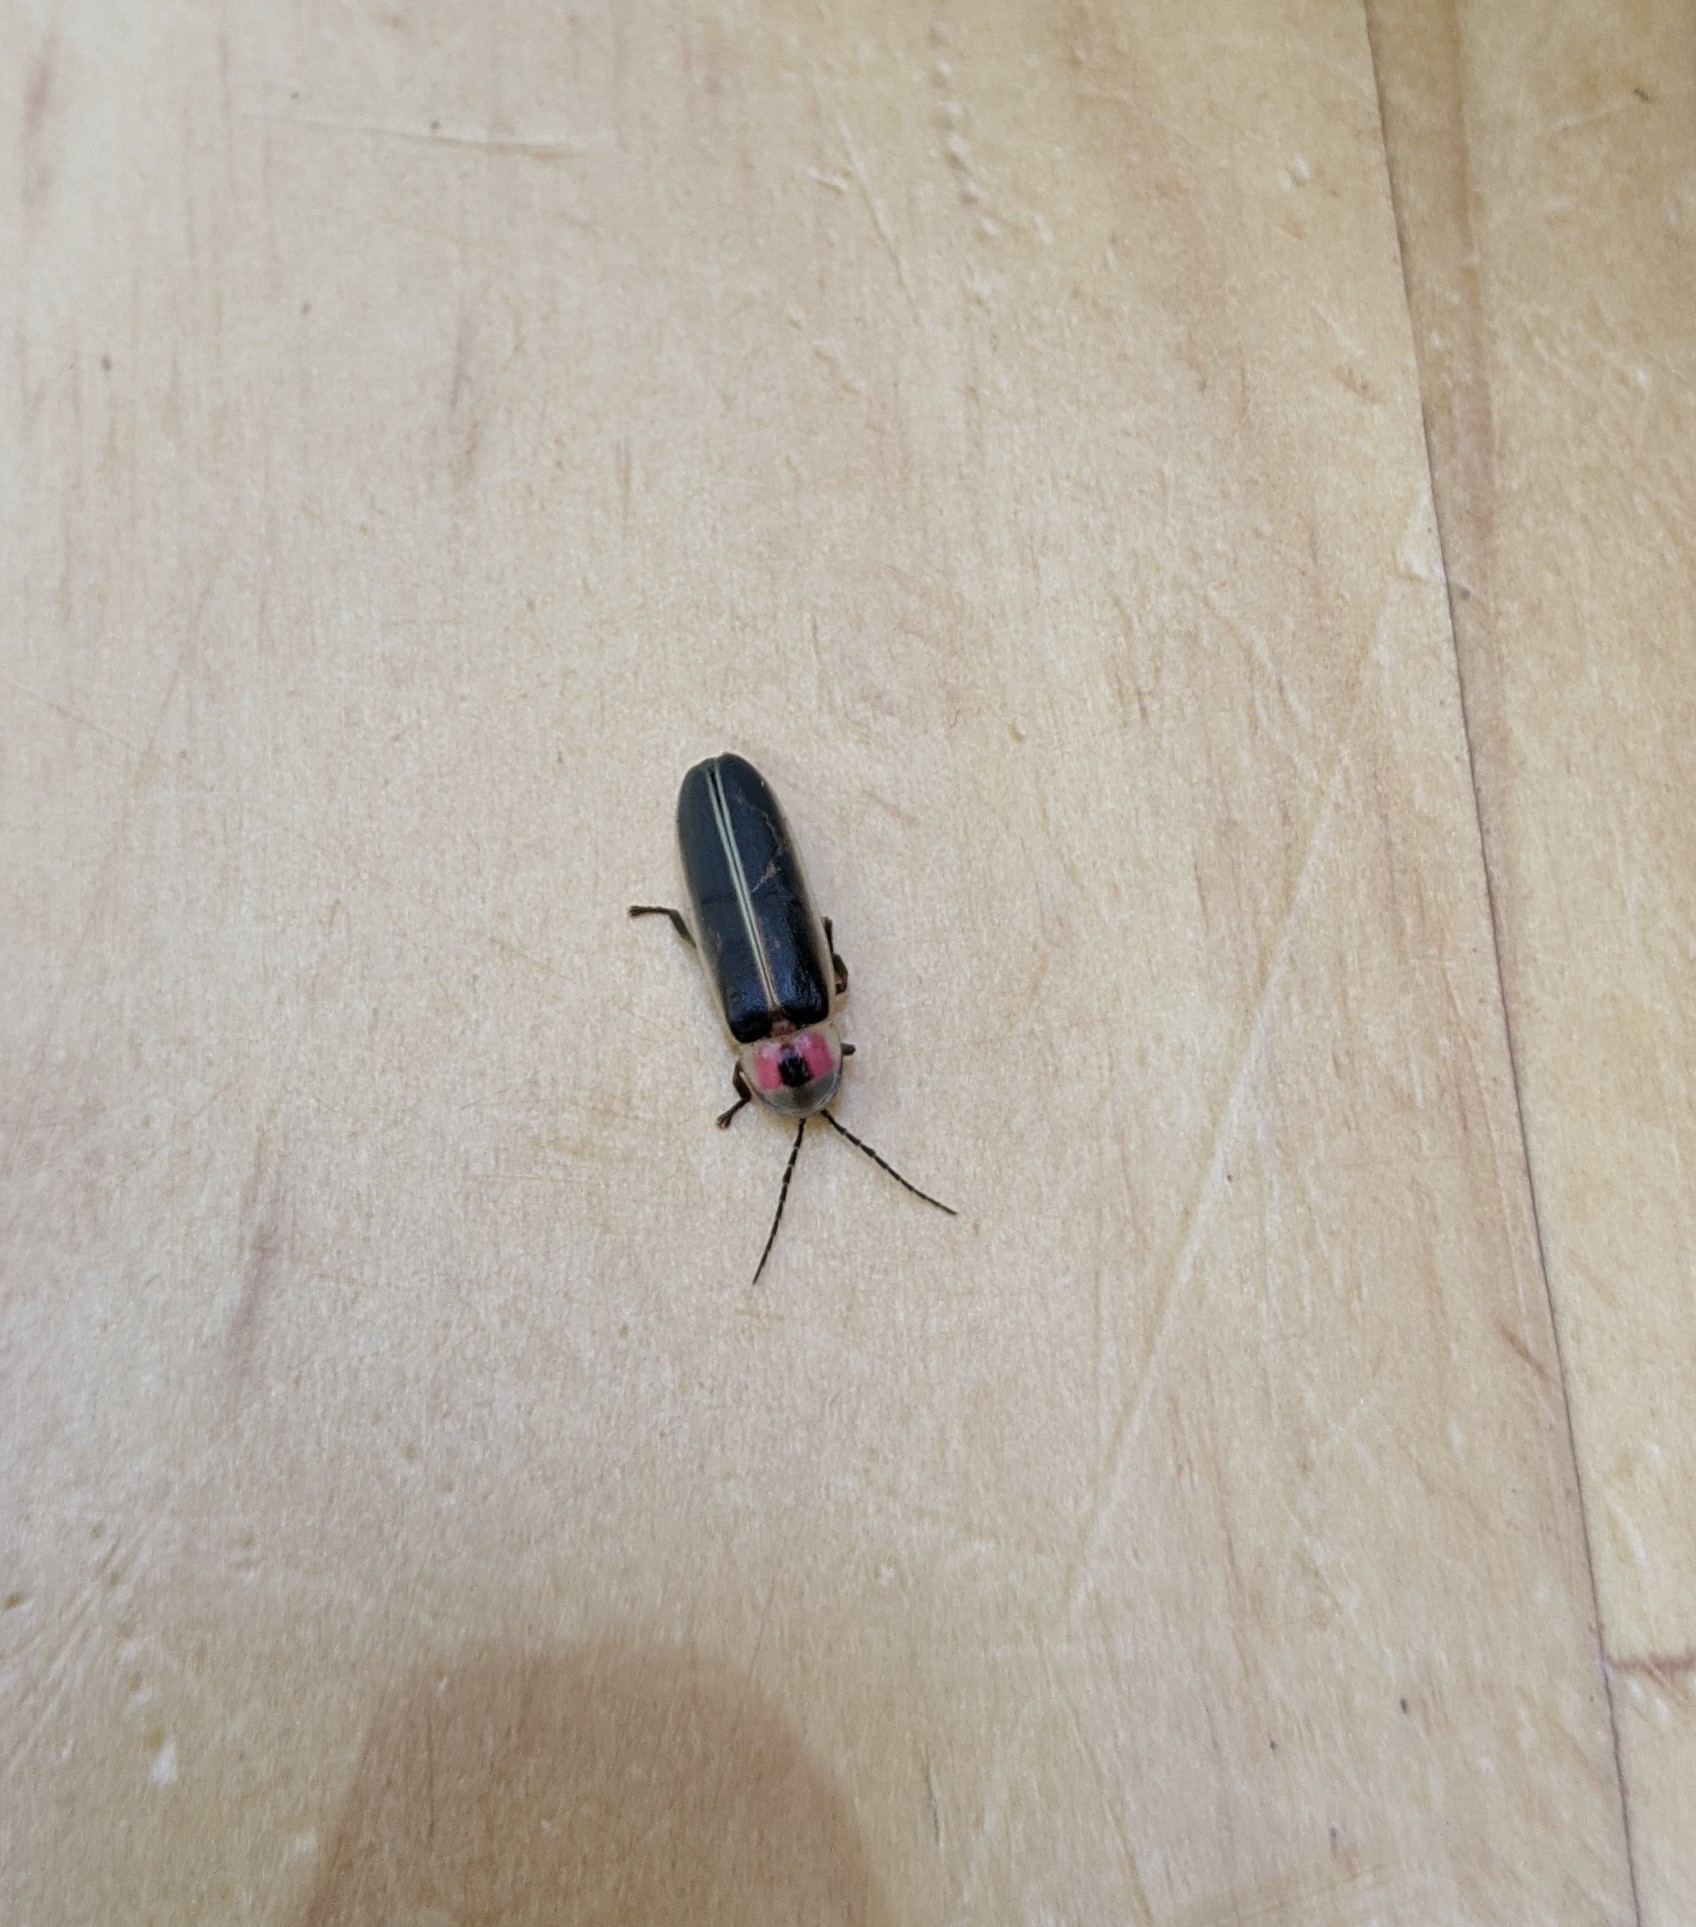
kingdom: Animalia
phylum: Arthropoda
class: Insecta
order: Coleoptera
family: Lampyridae
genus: Photinus
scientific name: Photinus pyralis
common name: Big dipper firefly
